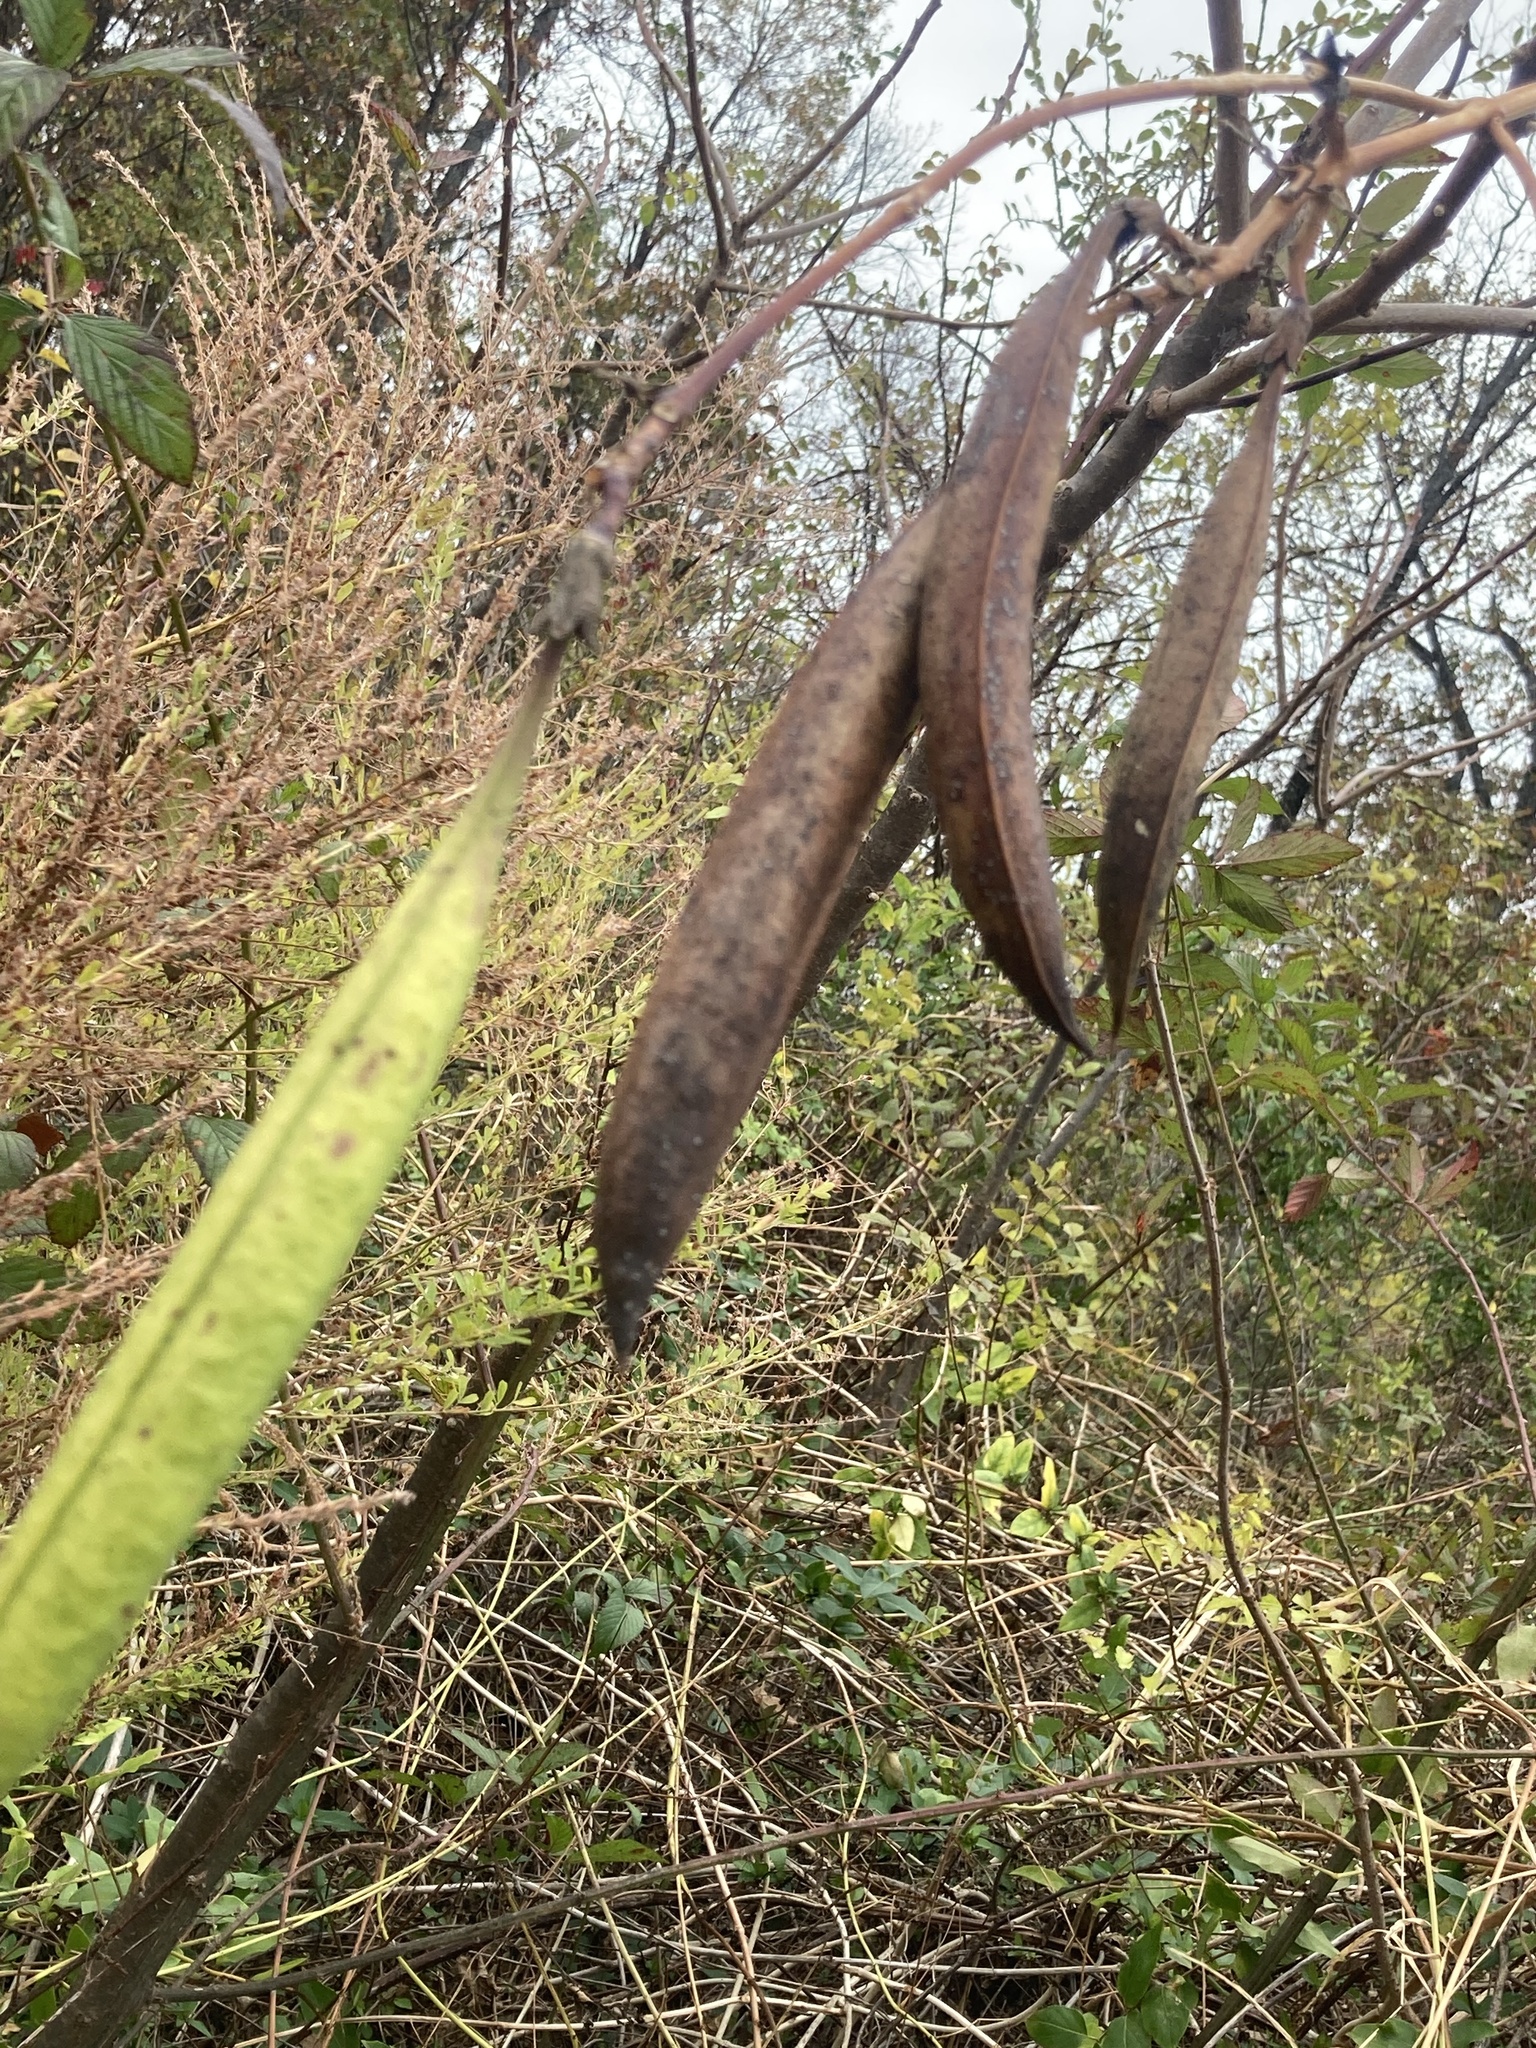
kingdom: Plantae
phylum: Tracheophyta
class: Magnoliopsida
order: Lamiales
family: Bignoniaceae
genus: Campsis
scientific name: Campsis radicans
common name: Trumpet-creeper
